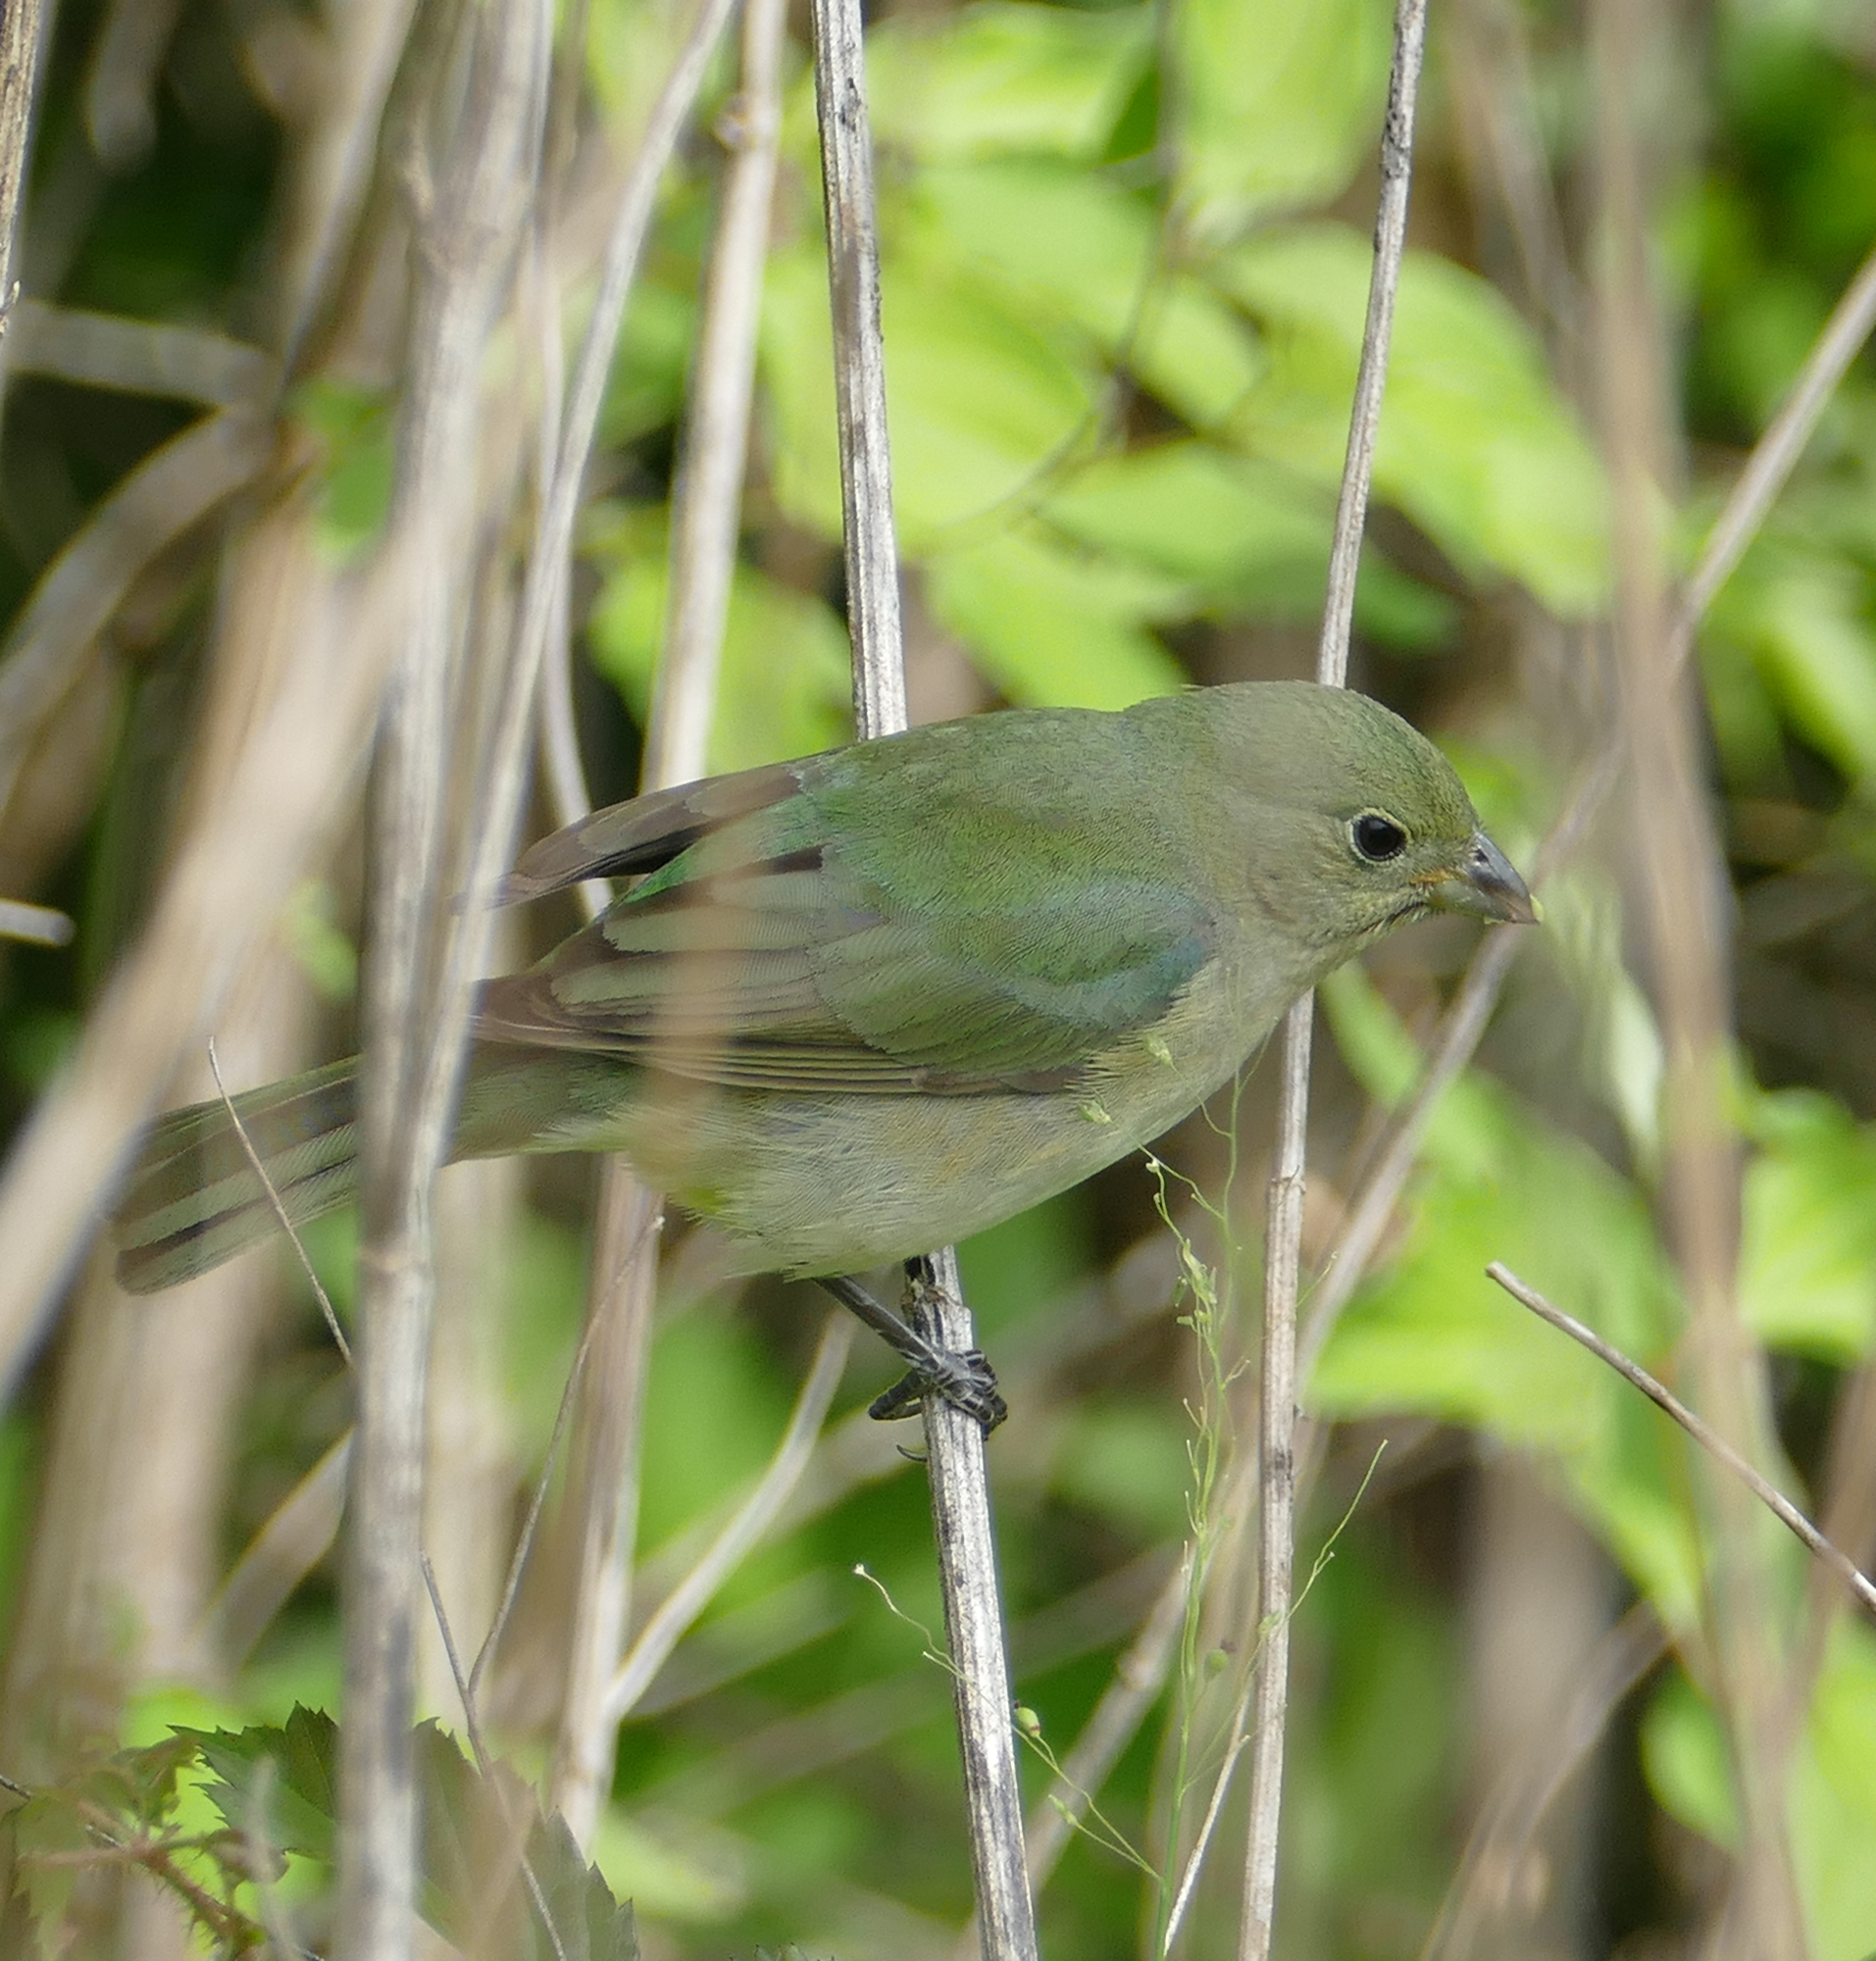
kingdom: Animalia
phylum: Chordata
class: Aves
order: Passeriformes
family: Cardinalidae
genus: Passerina
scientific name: Passerina ciris
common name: Painted bunting
